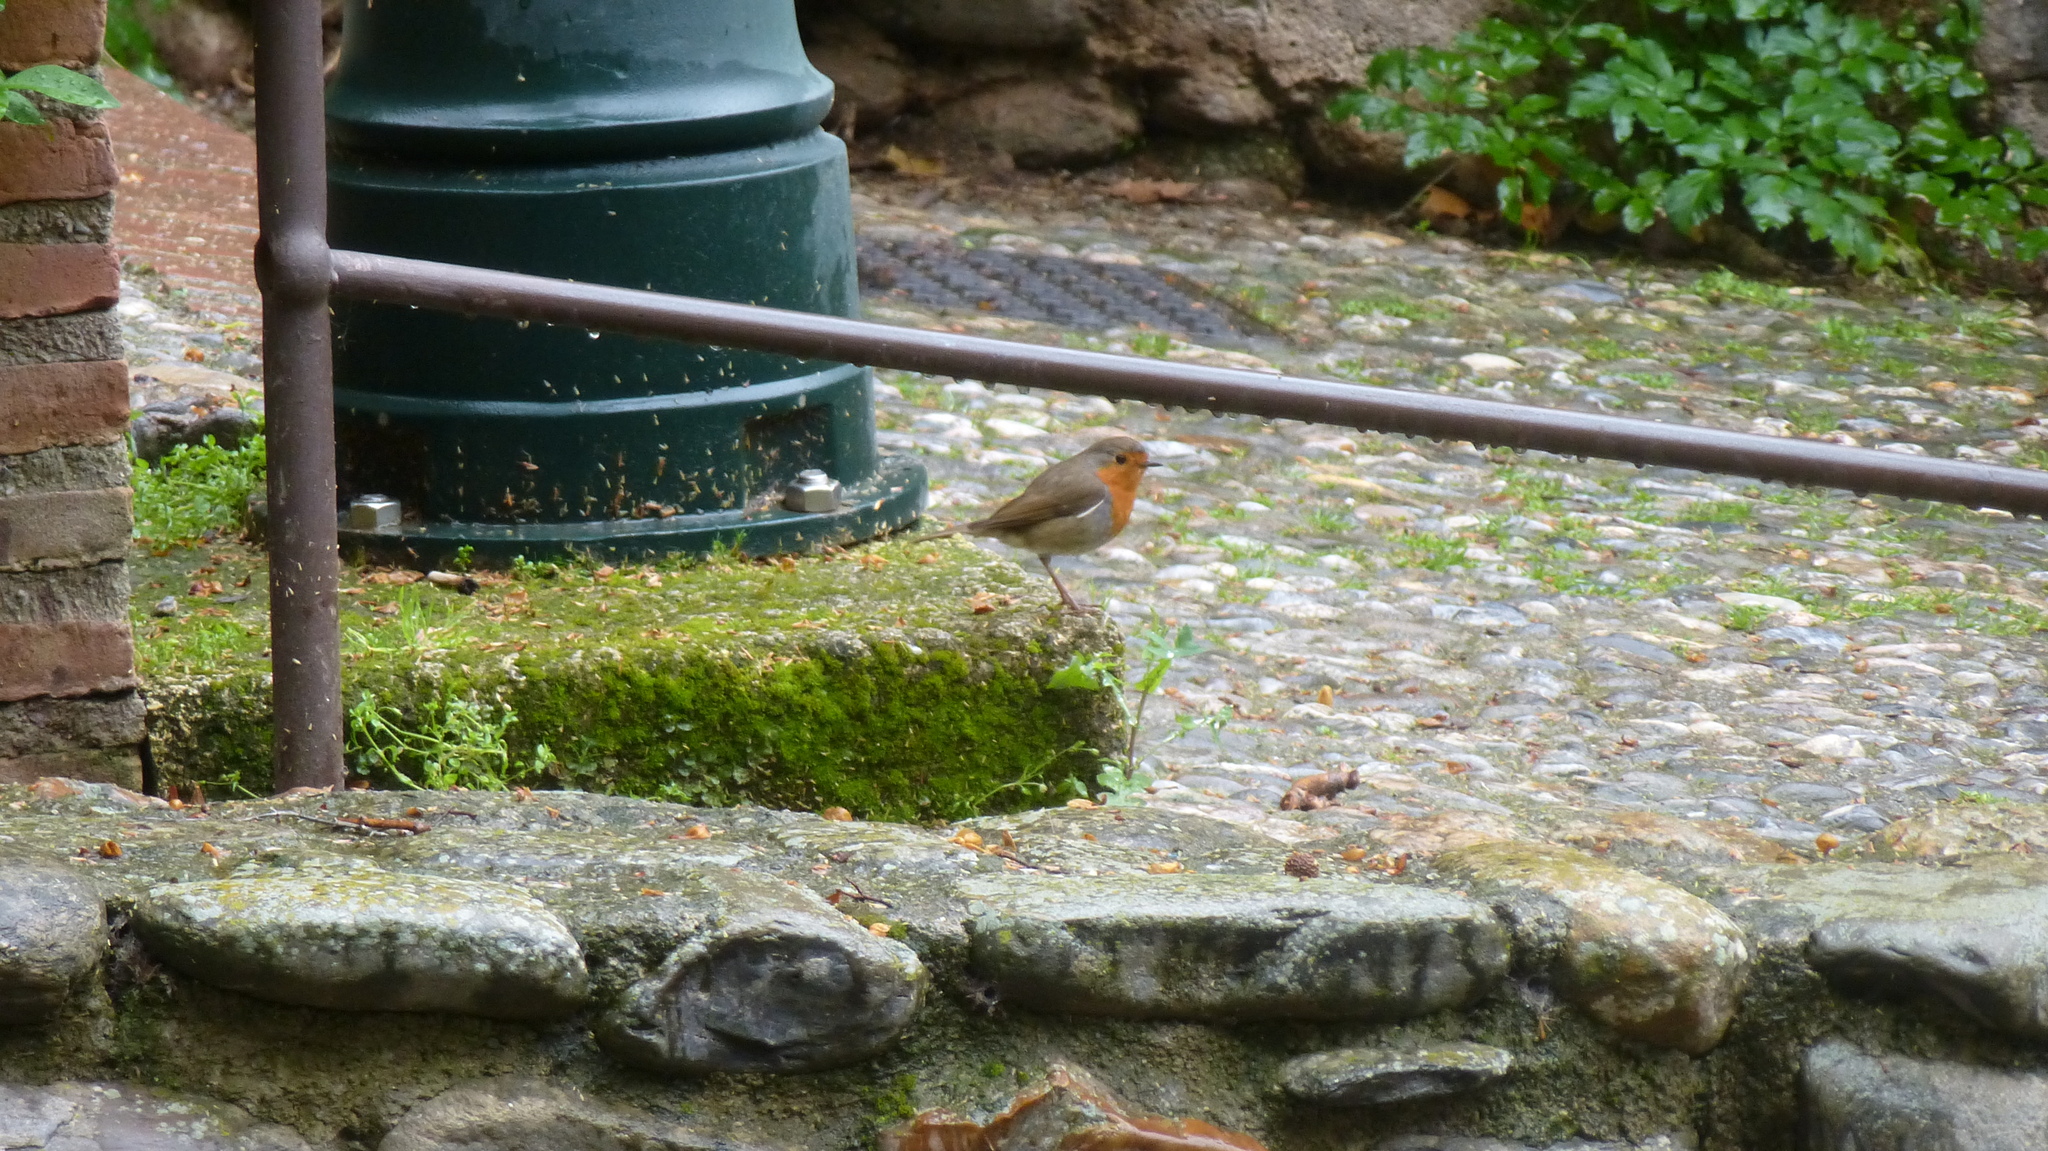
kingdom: Animalia
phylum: Chordata
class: Aves
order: Passeriformes
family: Muscicapidae
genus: Erithacus
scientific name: Erithacus rubecula
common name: European robin
